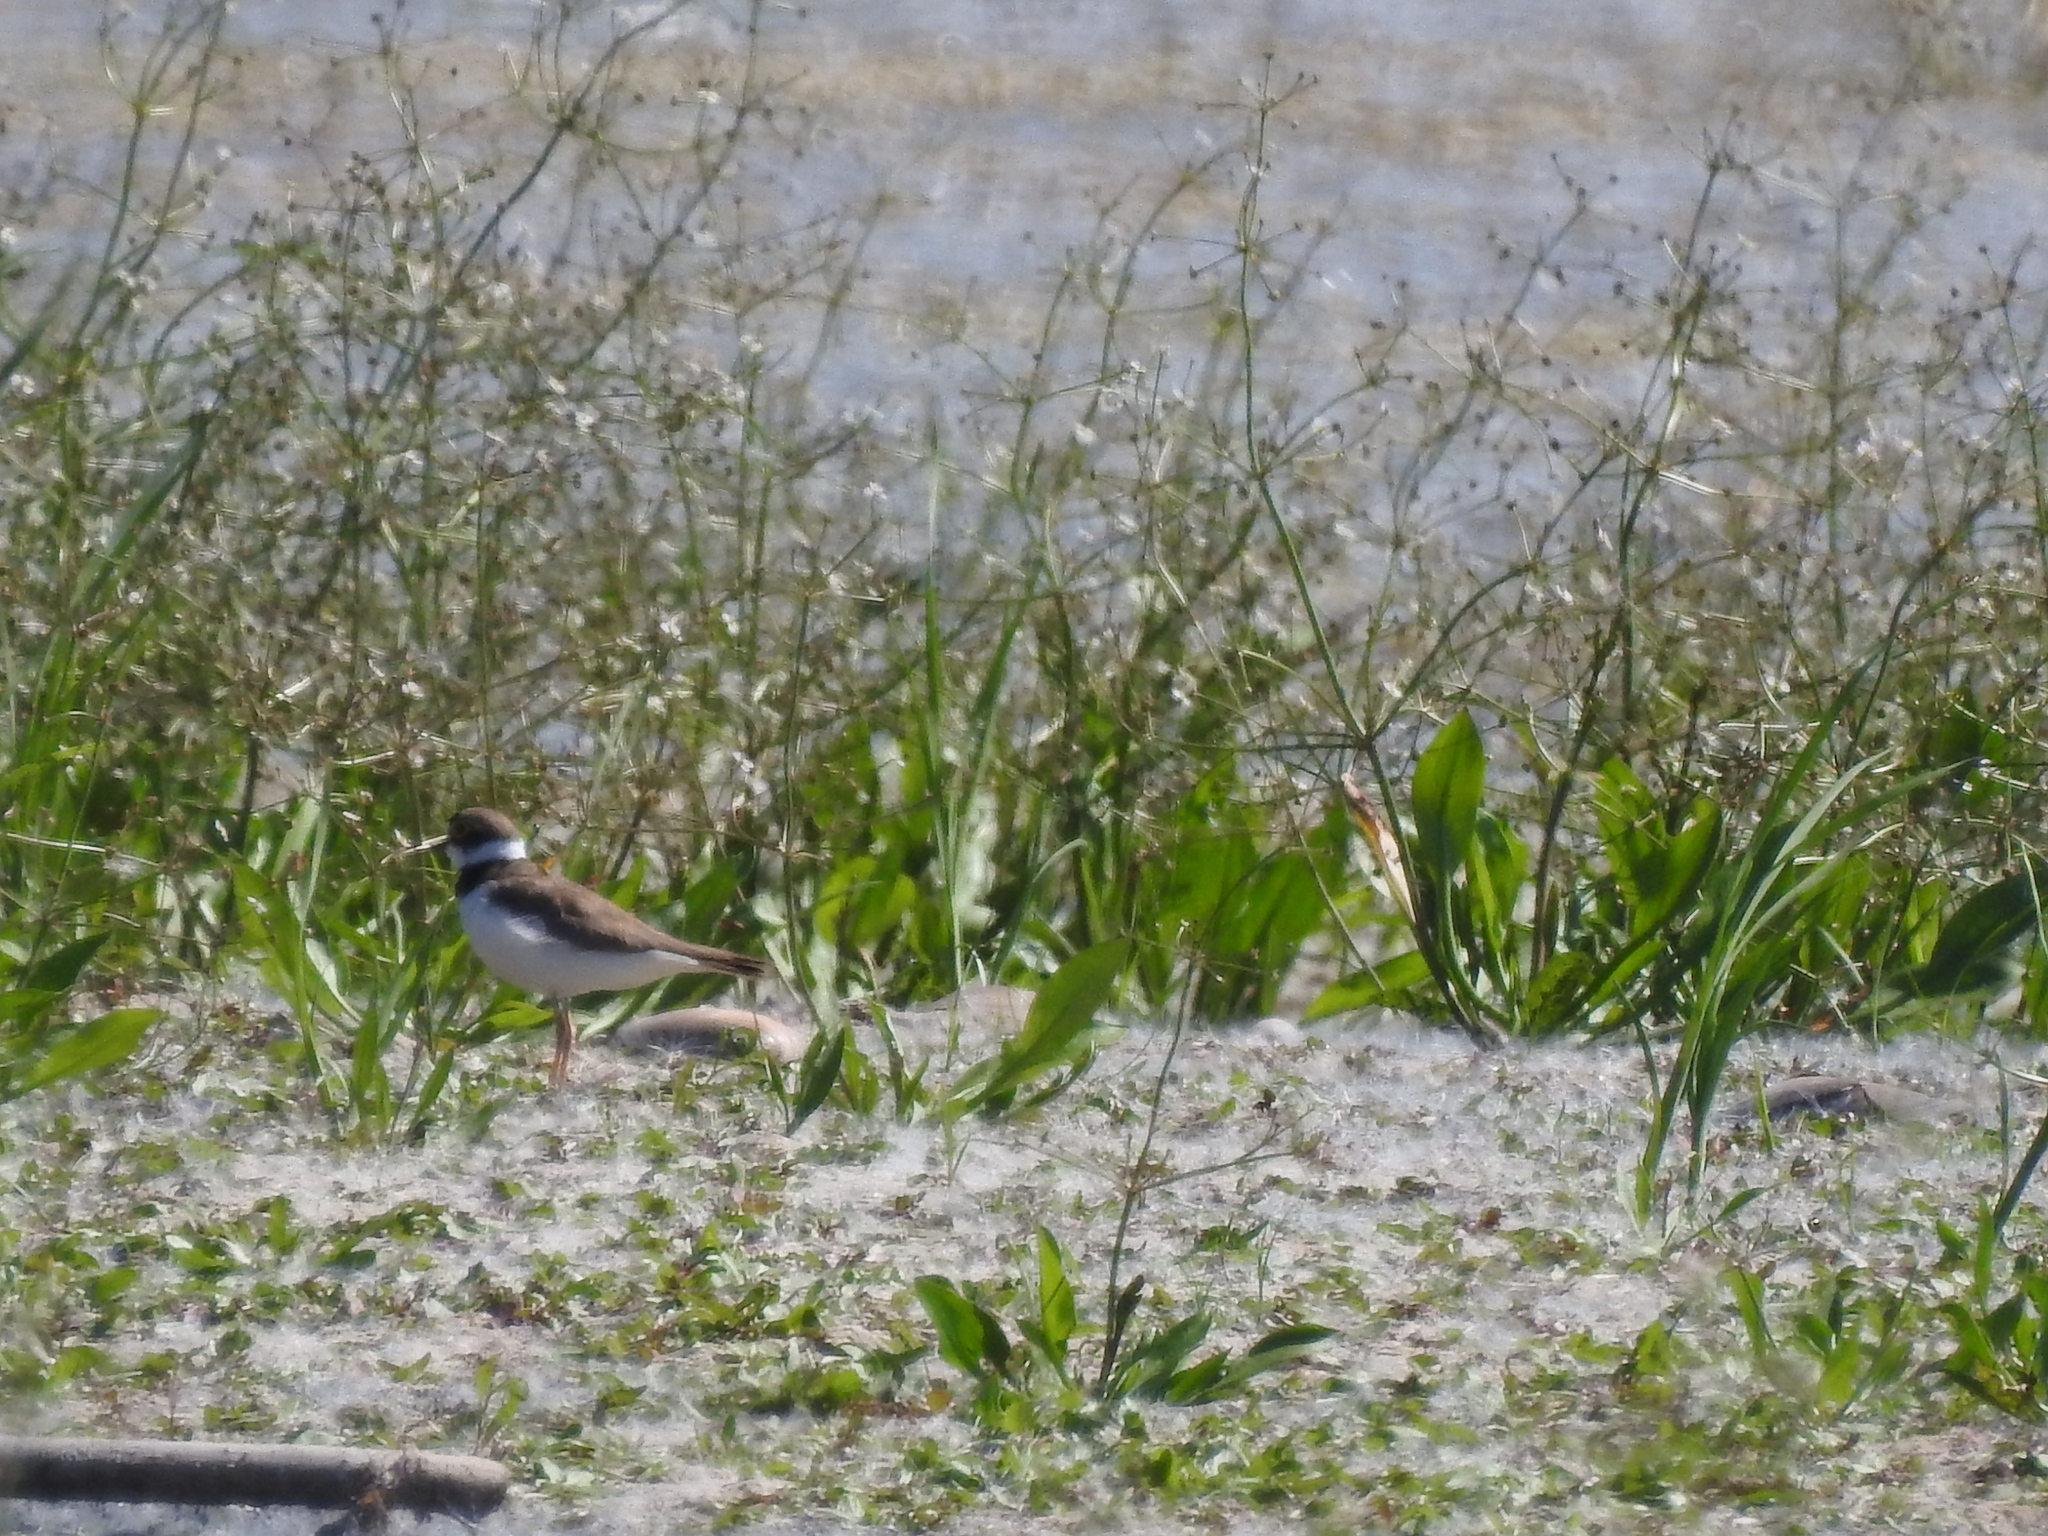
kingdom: Animalia
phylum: Chordata
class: Aves
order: Charadriiformes
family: Charadriidae
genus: Charadrius
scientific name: Charadrius dubius
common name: Little ringed plover
